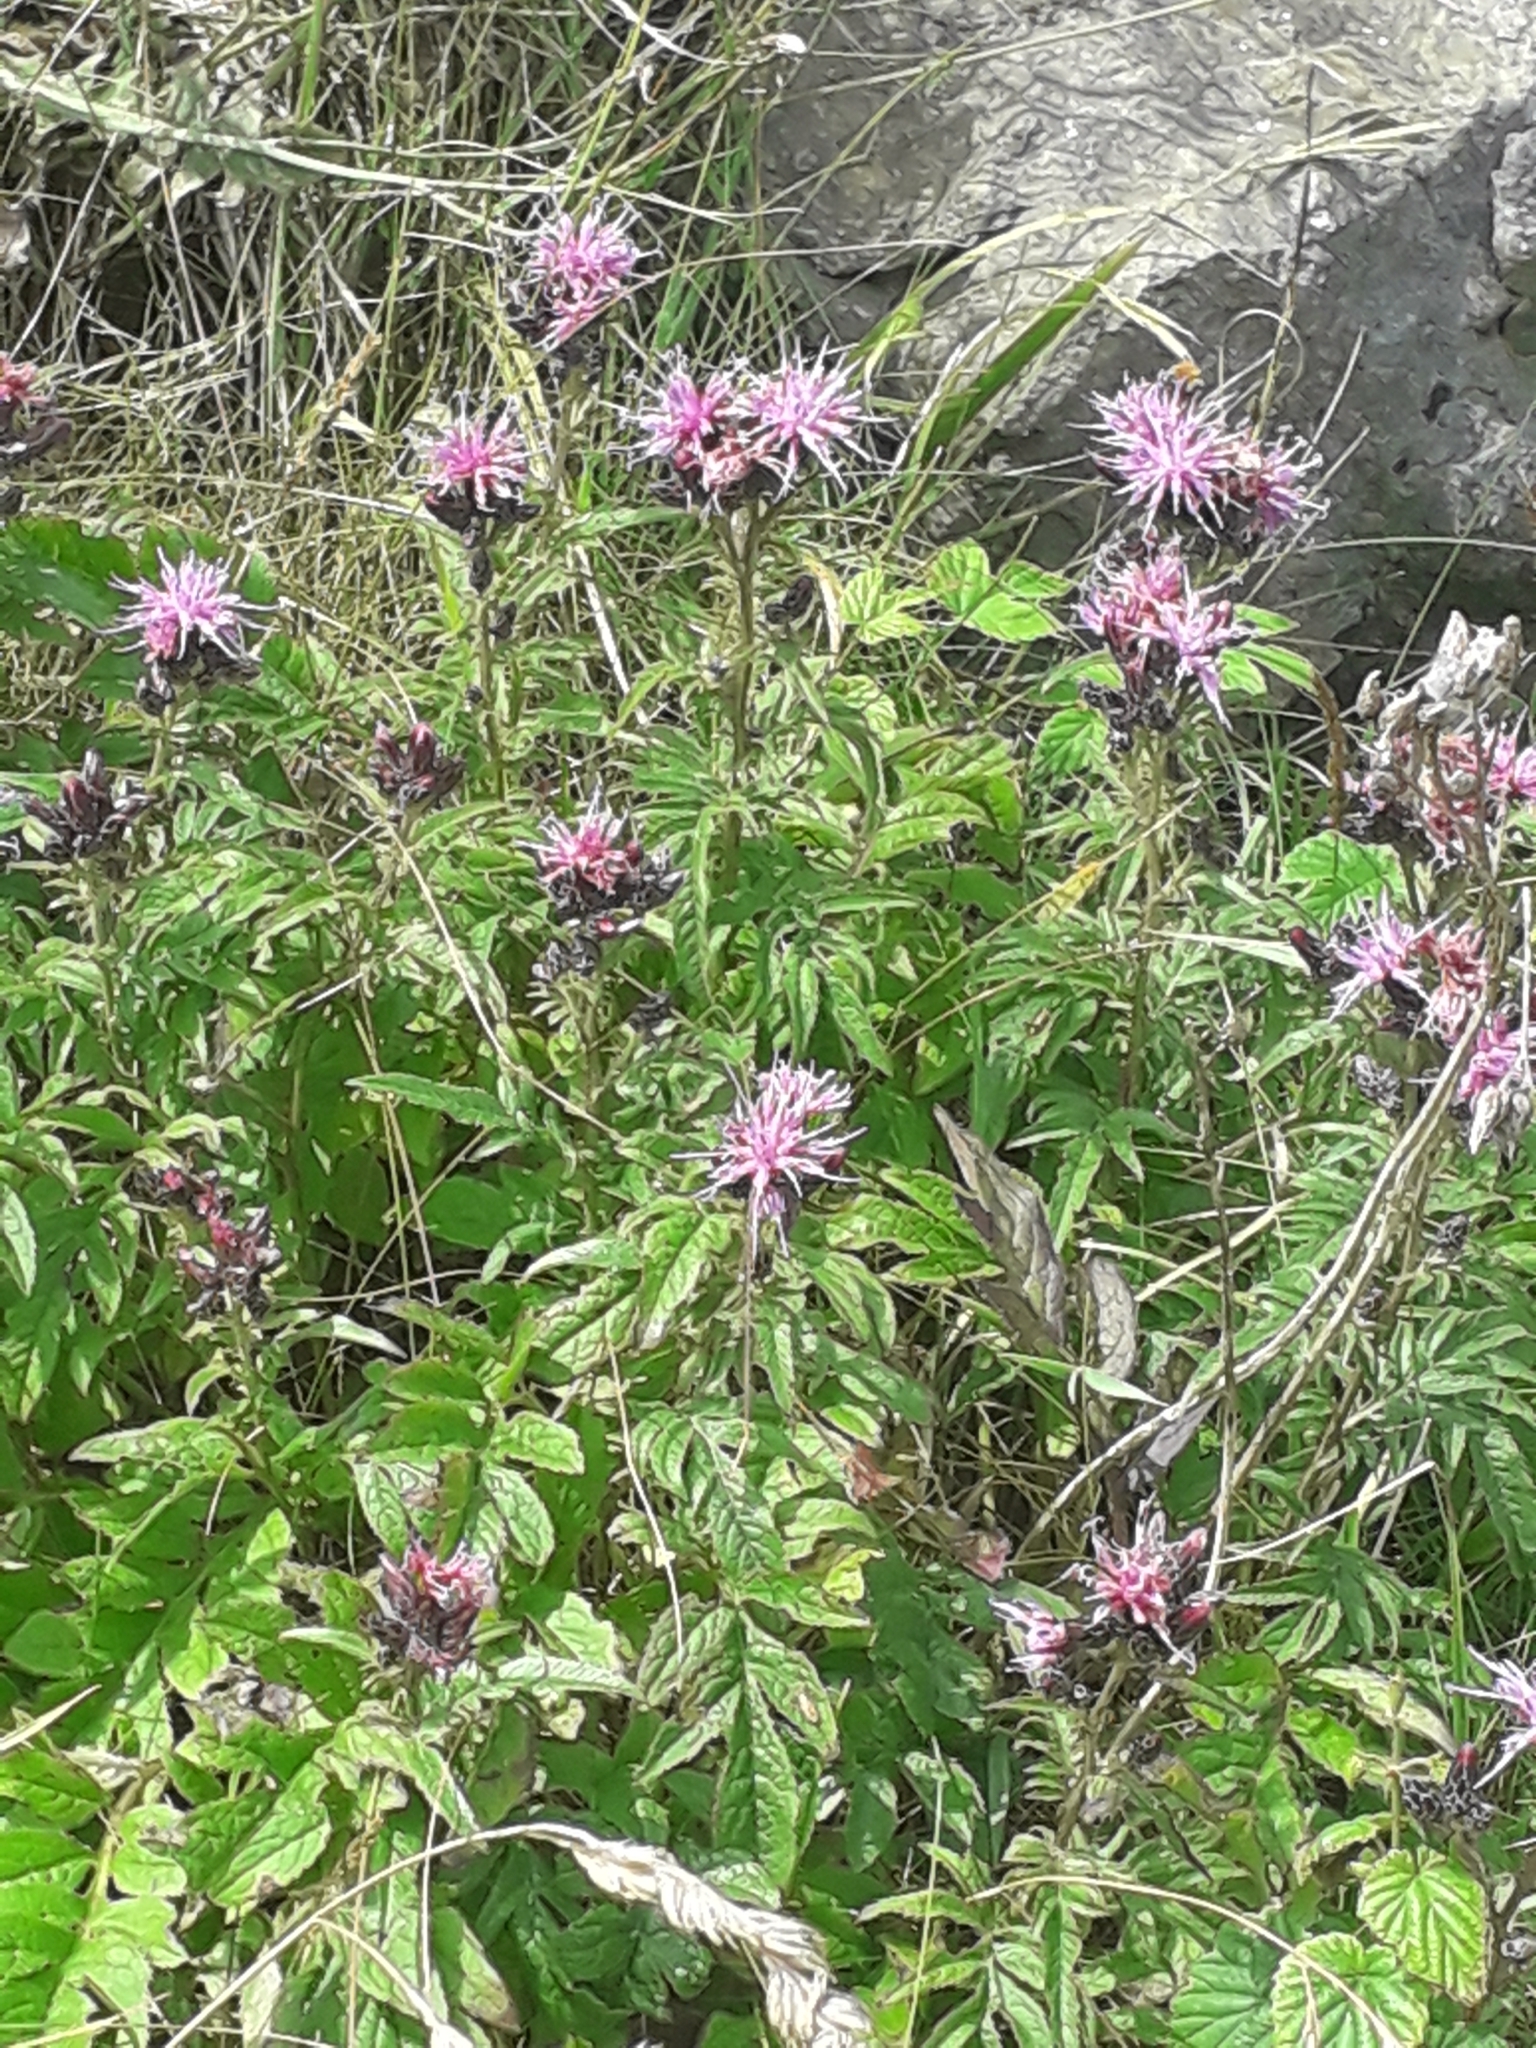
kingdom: Plantae
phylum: Tracheophyta
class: Magnoliopsida
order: Asterales
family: Asteraceae
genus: Serratula
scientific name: Serratula tinctoria
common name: Saw-wort
